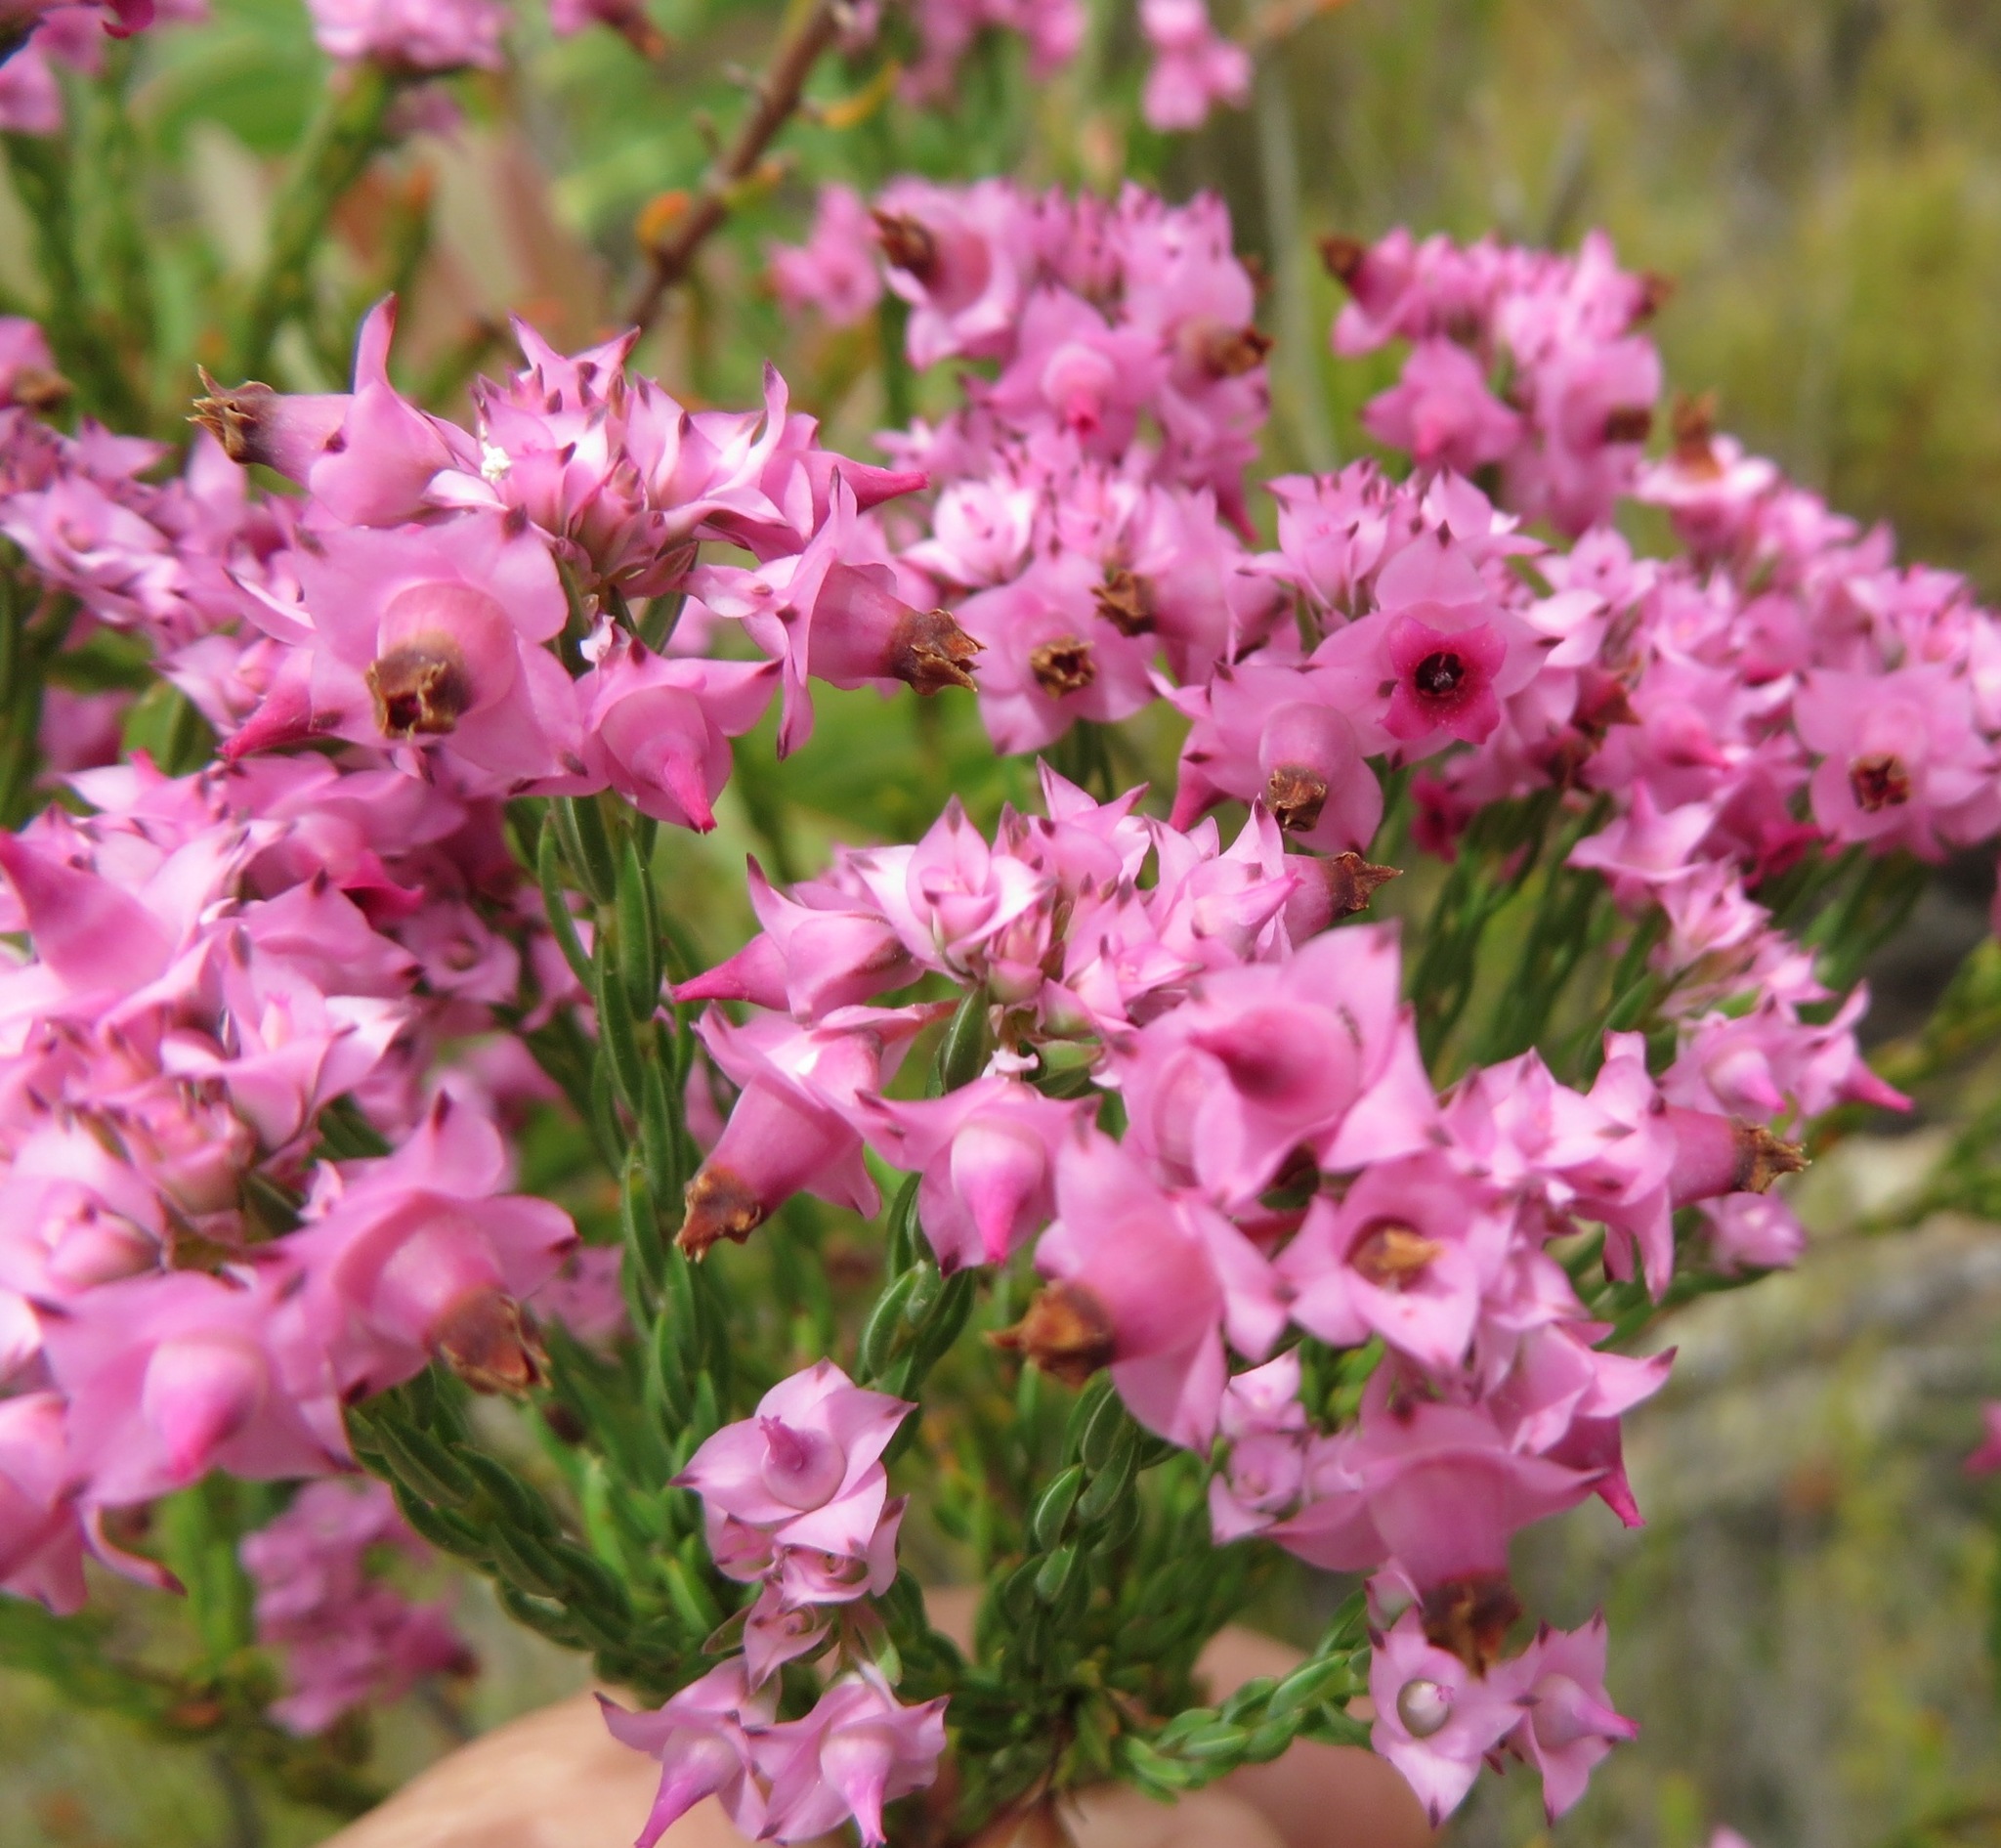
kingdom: Plantae
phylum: Tracheophyta
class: Magnoliopsida
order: Ericales
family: Ericaceae
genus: Erica
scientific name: Erica taxifolia
